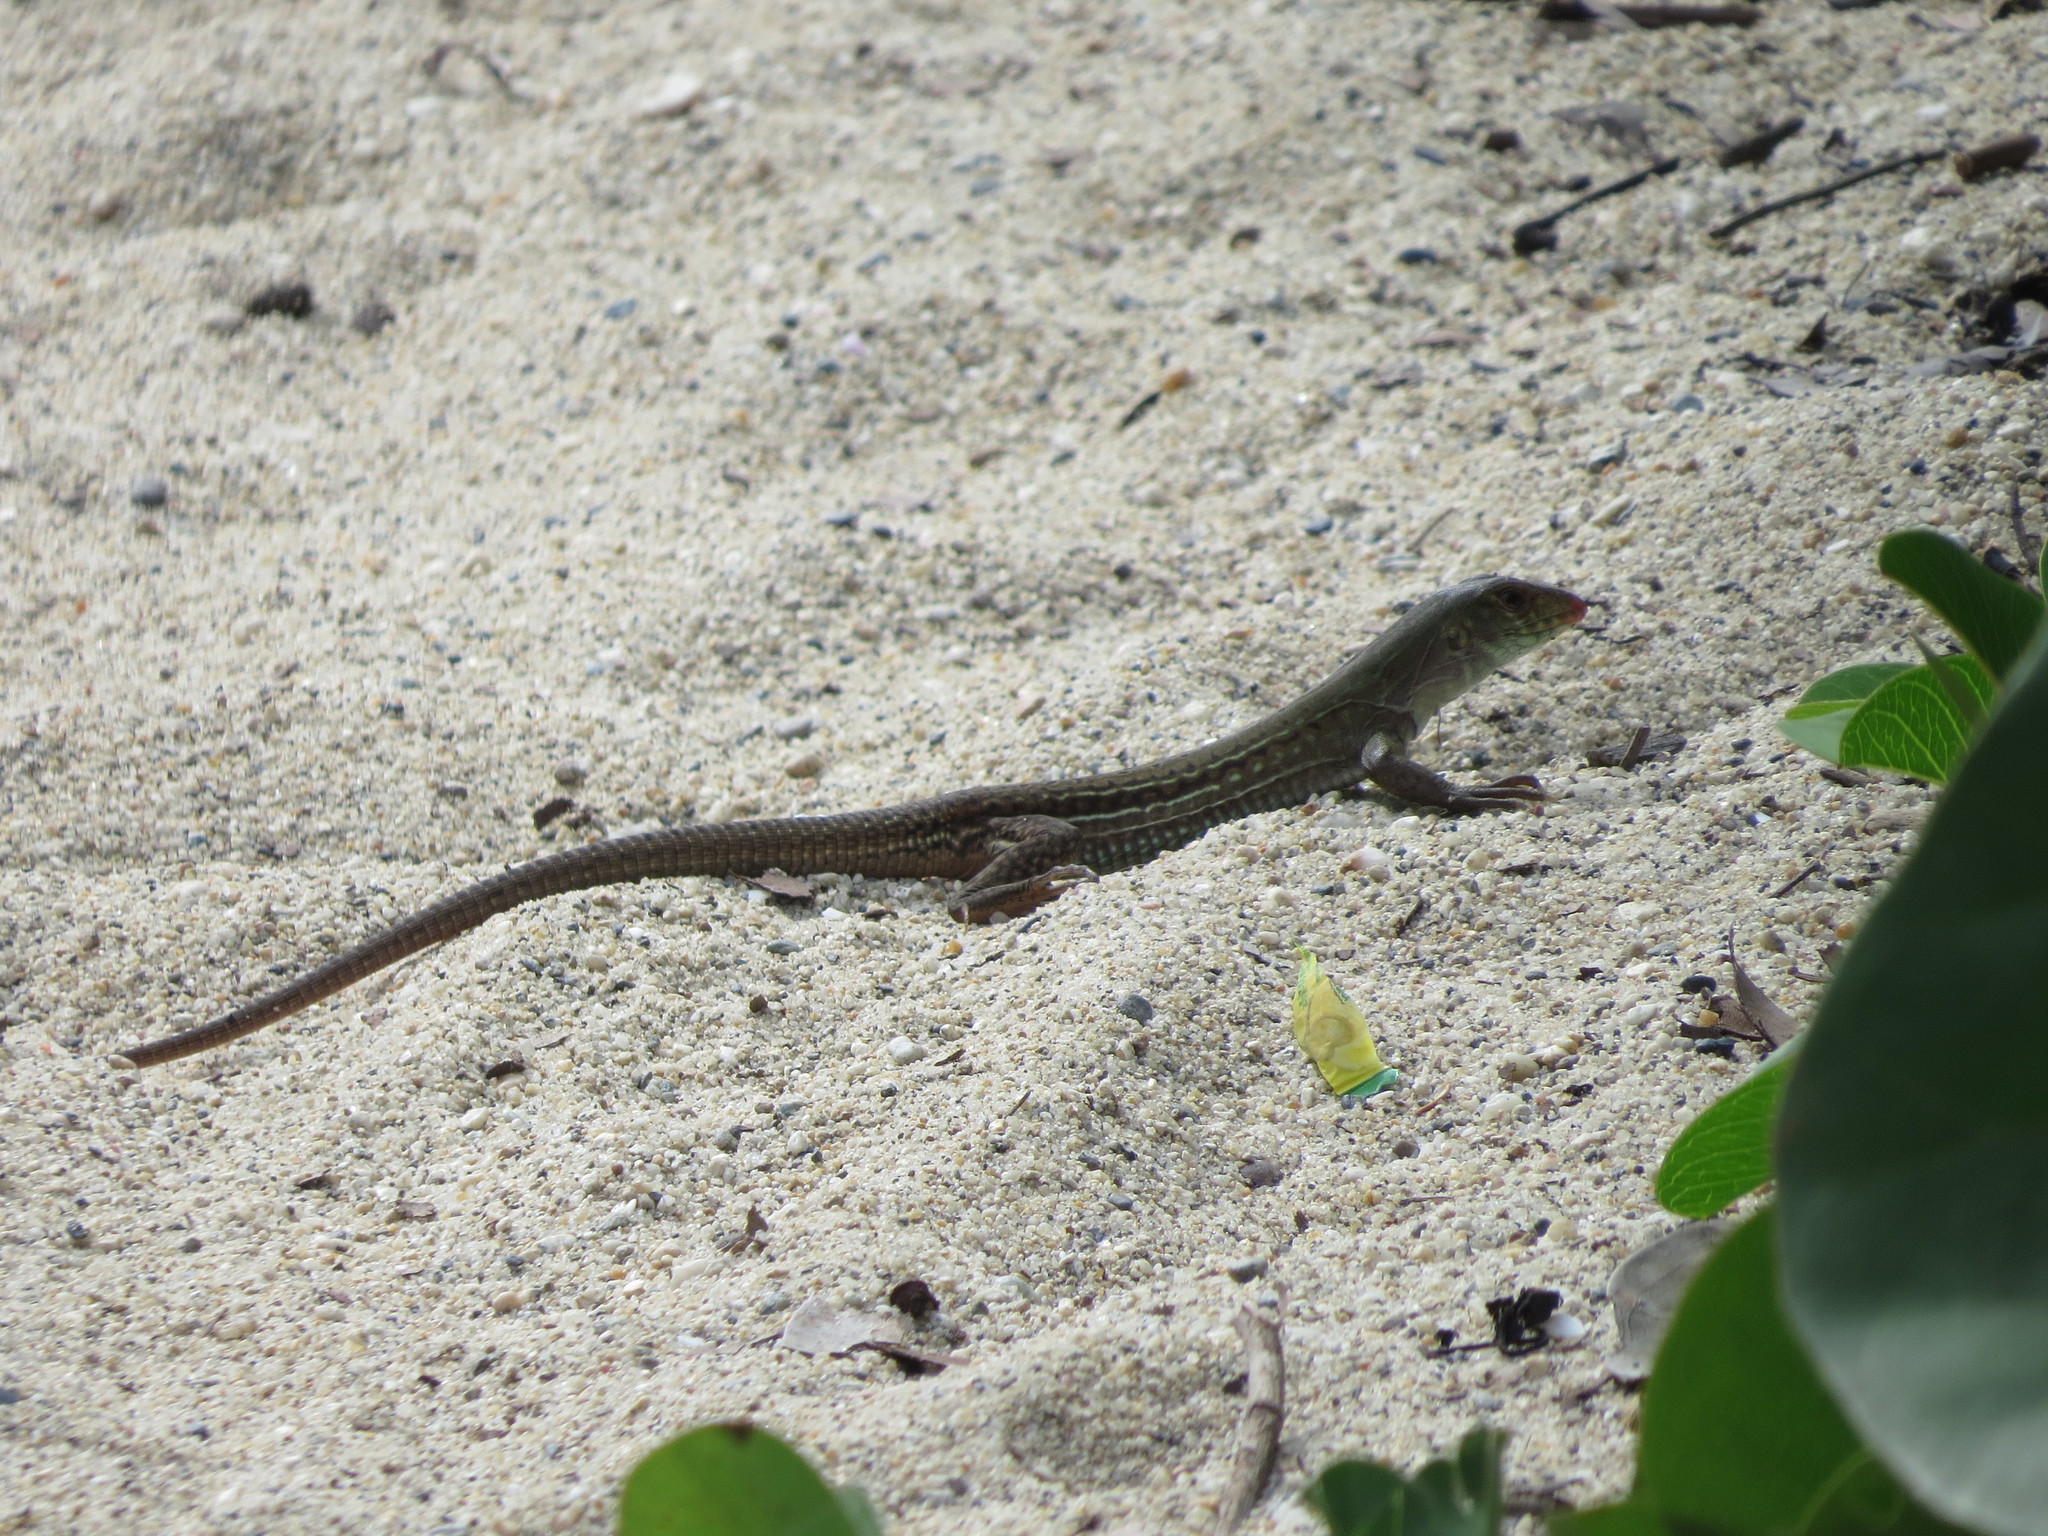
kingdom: Animalia
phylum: Chordata
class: Squamata
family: Teiidae
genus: Ameiva
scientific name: Ameiva bifrontata
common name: Cope's ameiva
